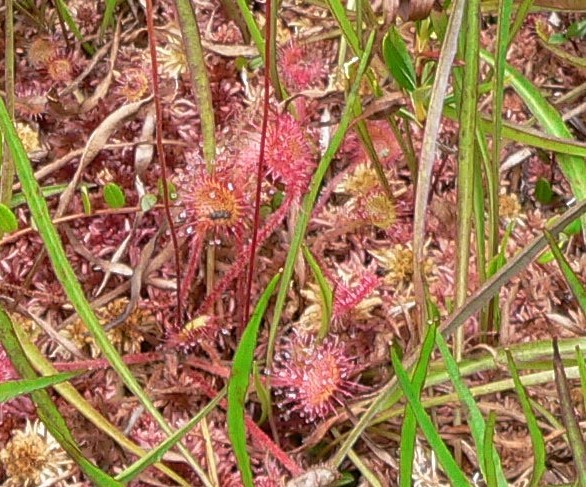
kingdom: Plantae
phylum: Tracheophyta
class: Magnoliopsida
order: Caryophyllales
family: Droseraceae
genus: Drosera
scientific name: Drosera rotundifolia
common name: Round-leaved sundew
